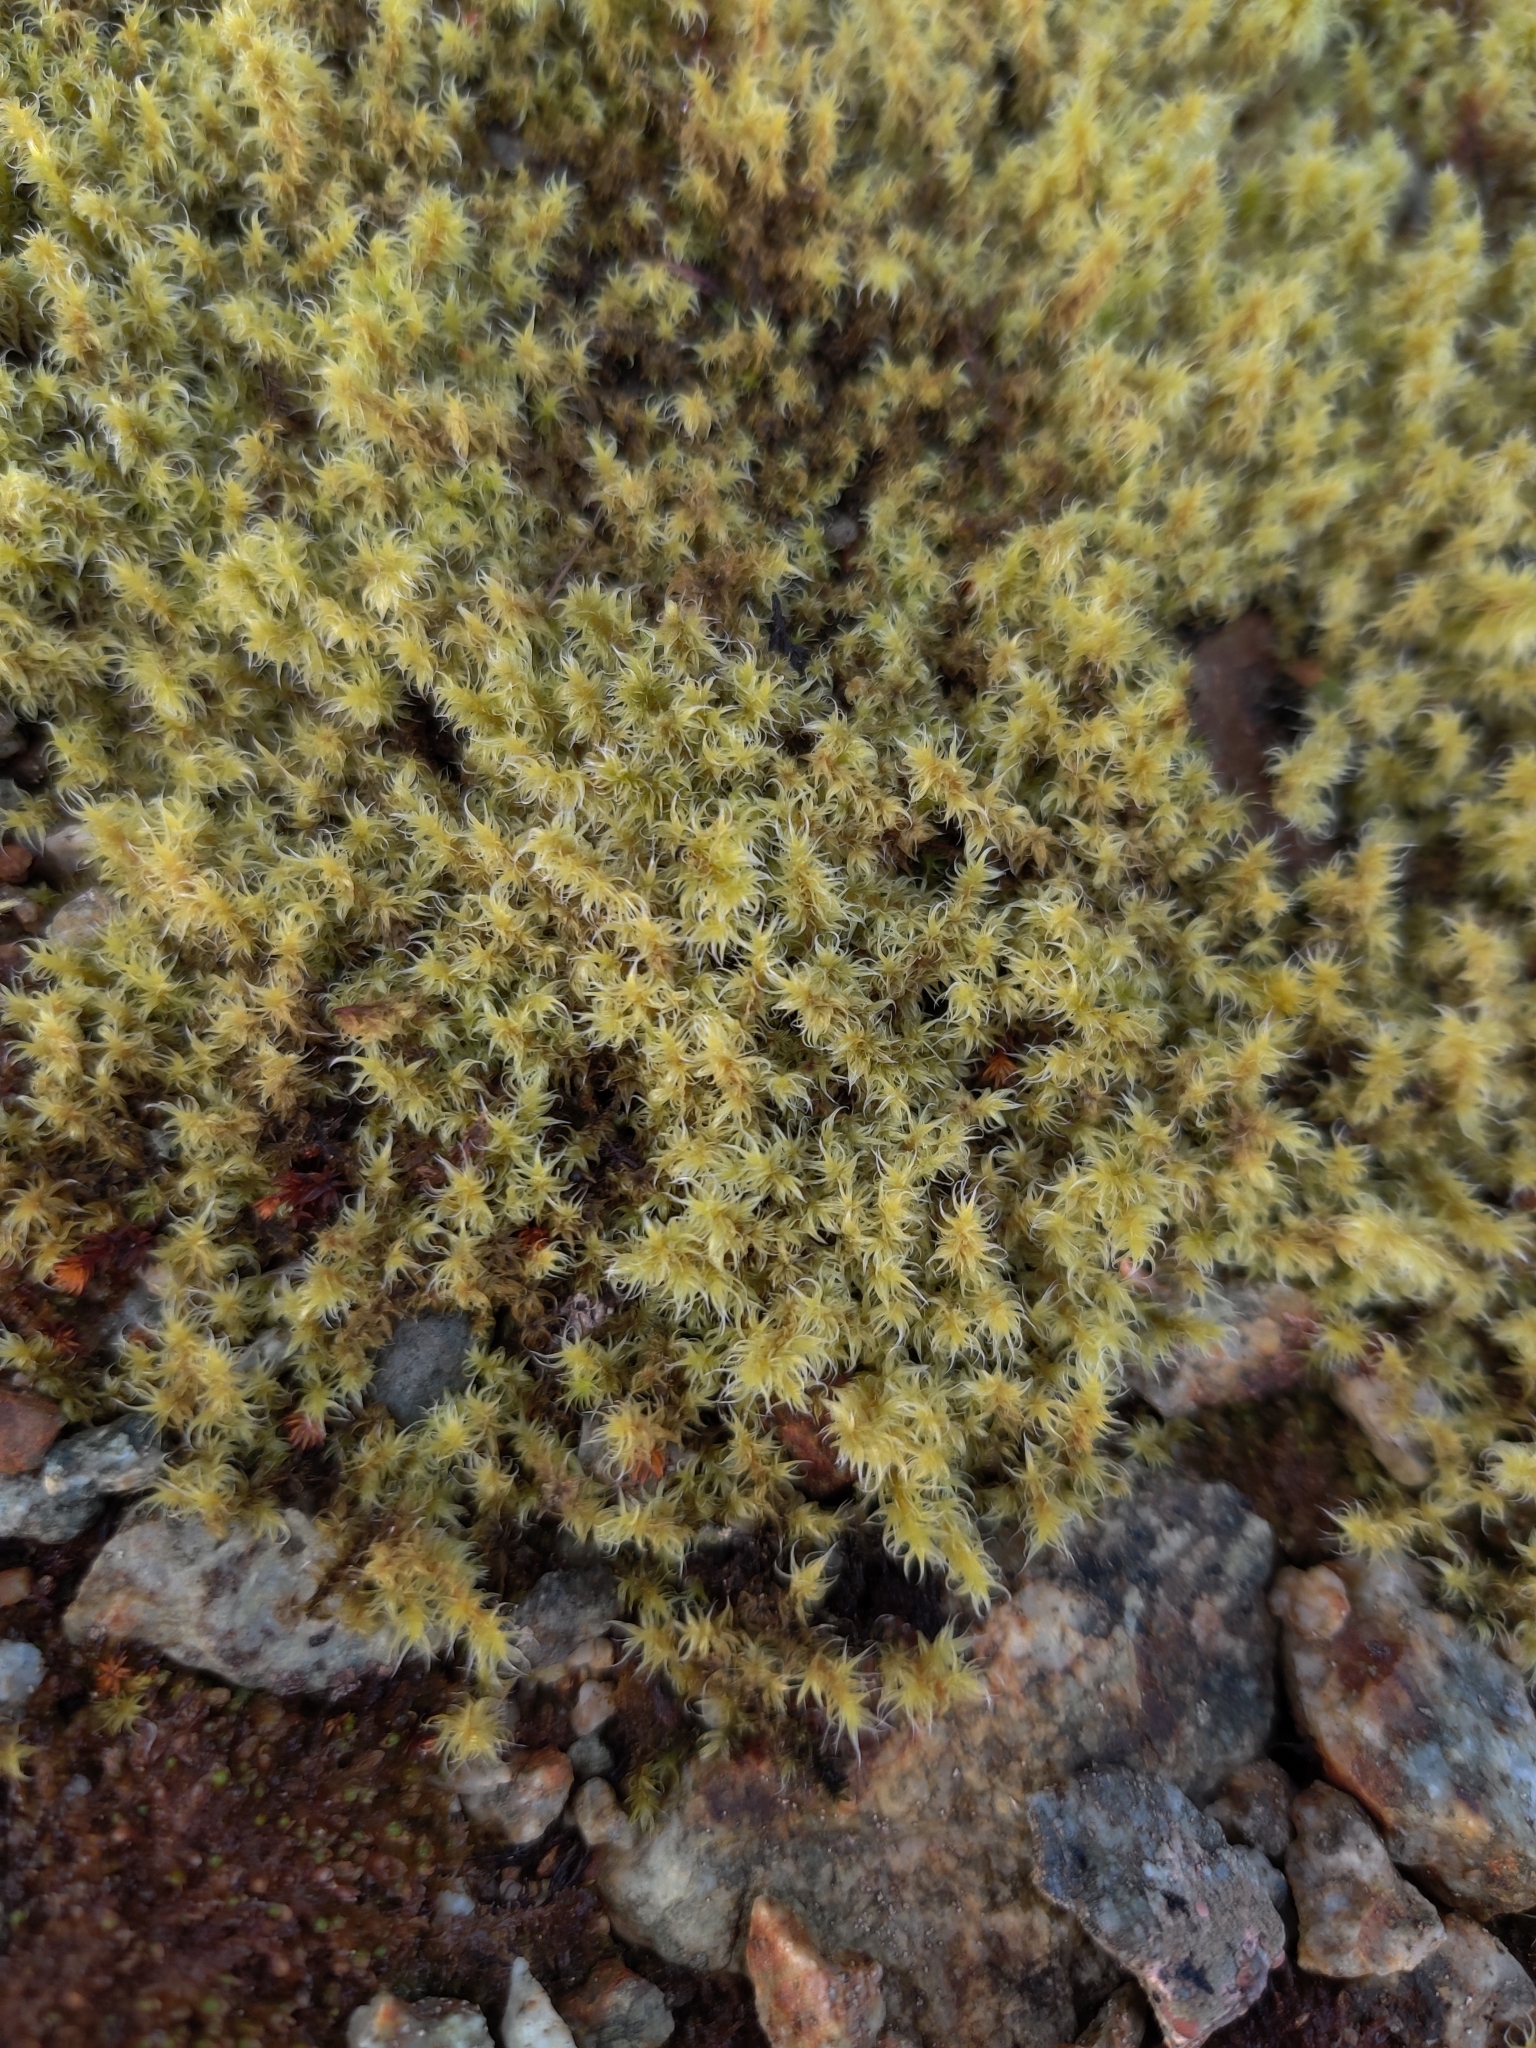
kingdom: Plantae
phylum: Bryophyta
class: Bryopsida
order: Grimmiales
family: Grimmiaceae
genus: Niphotrichum
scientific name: Niphotrichum elongatum
